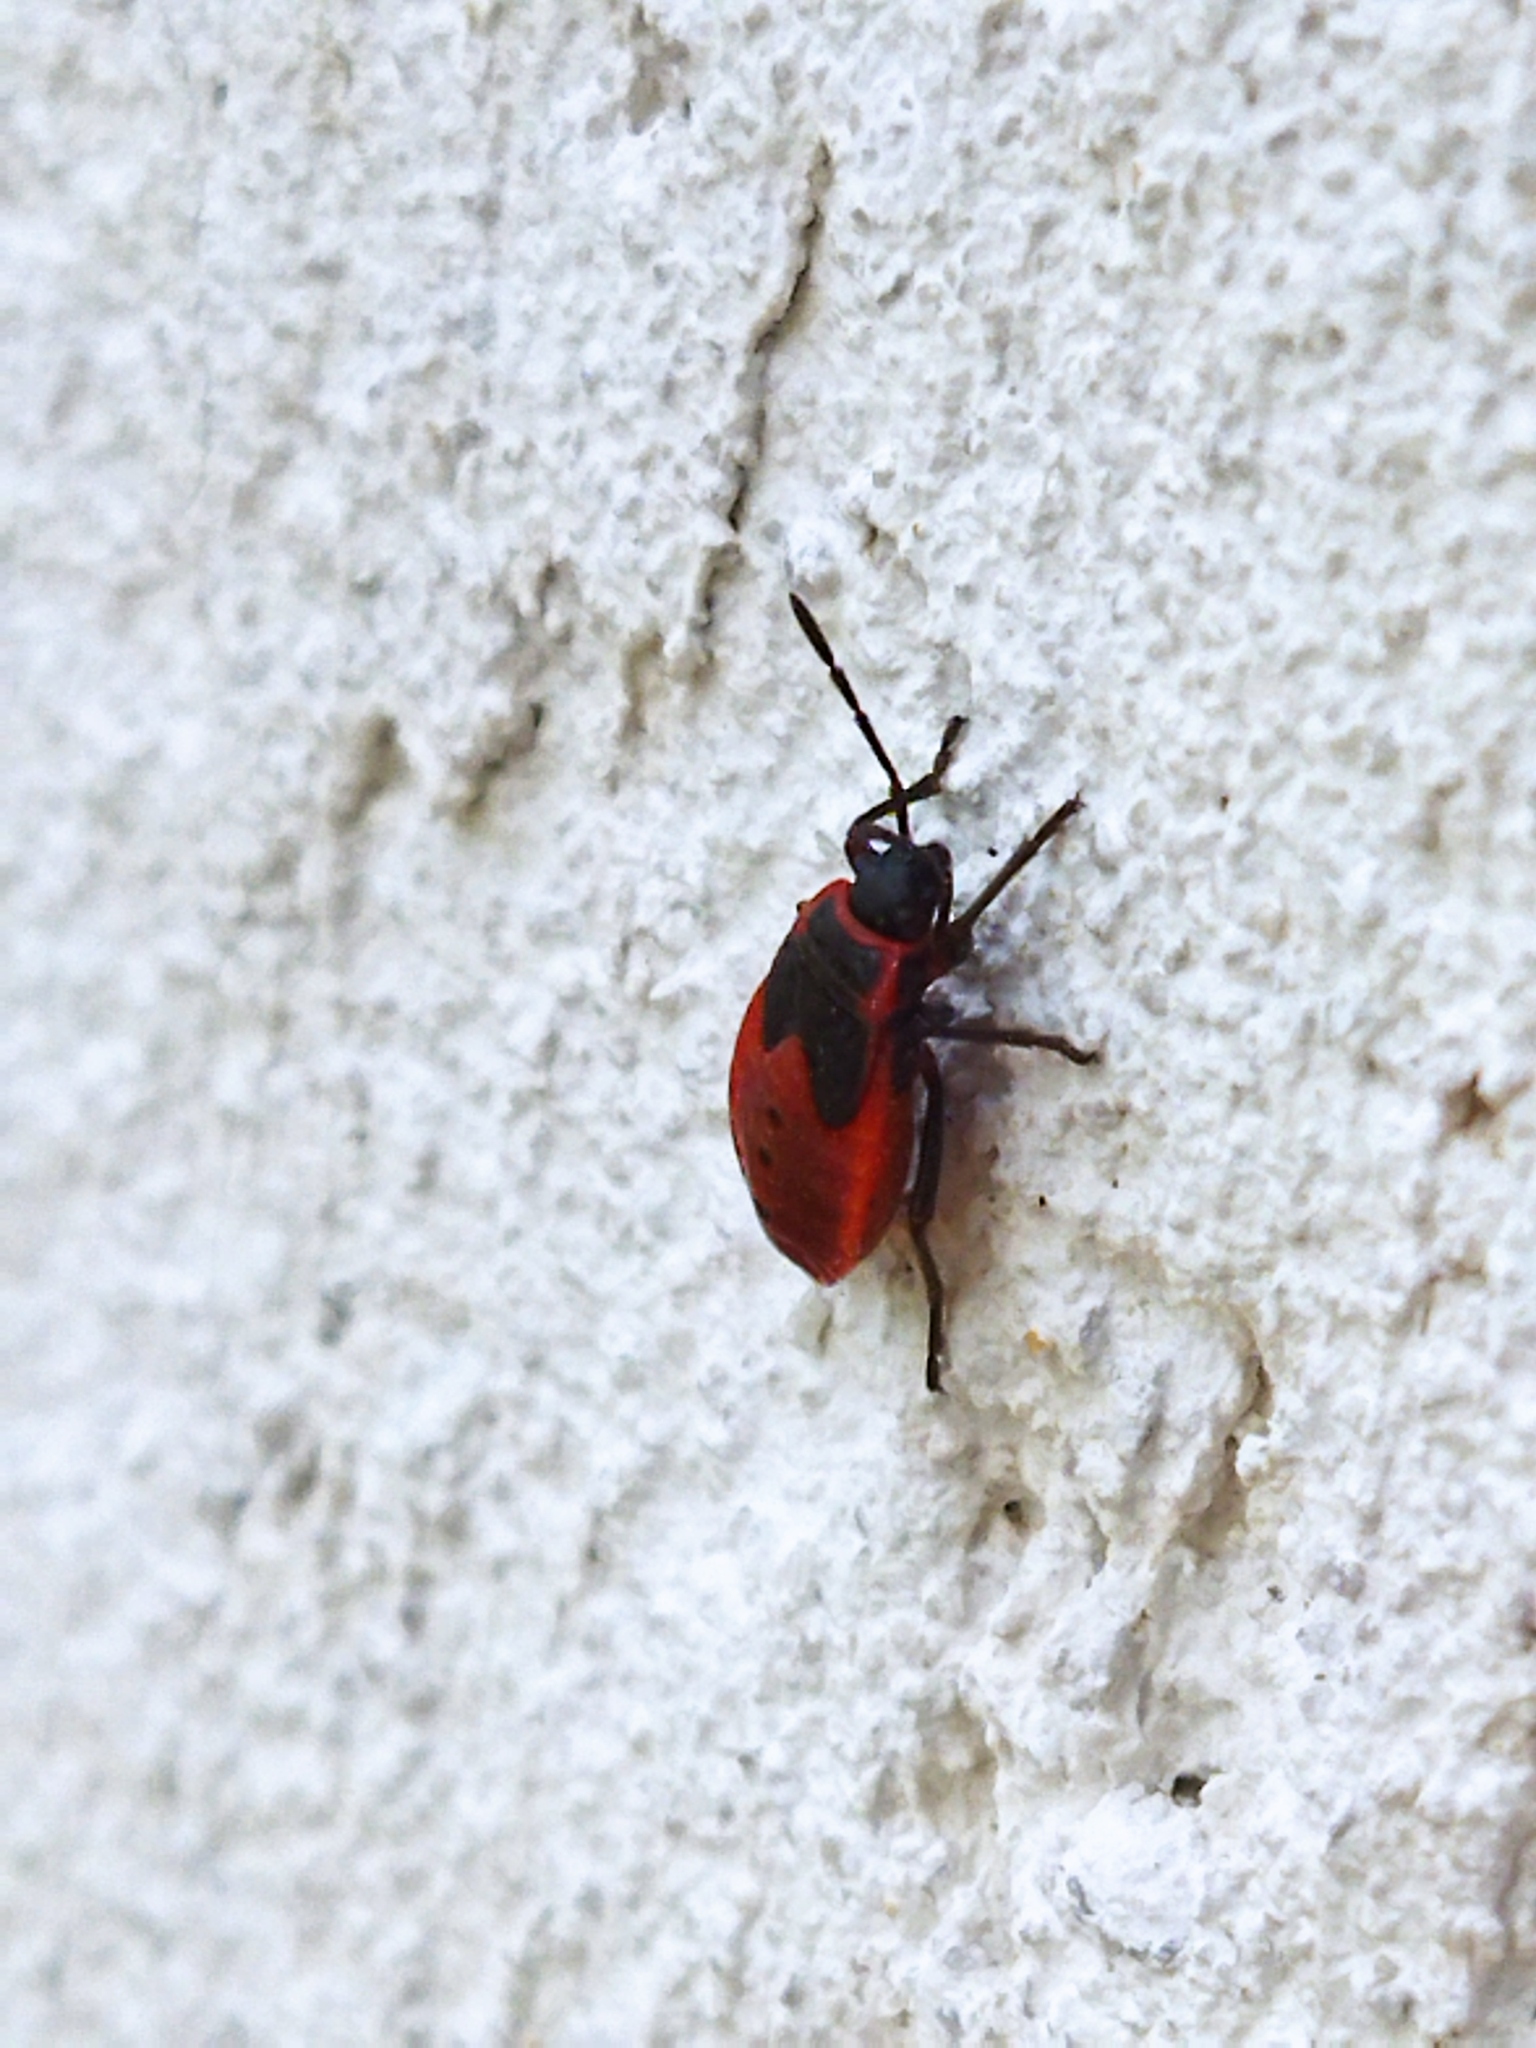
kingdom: Animalia
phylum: Arthropoda
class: Insecta
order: Hemiptera
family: Pyrrhocoridae
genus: Pyrrhocoris
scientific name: Pyrrhocoris apterus
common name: Firebug
